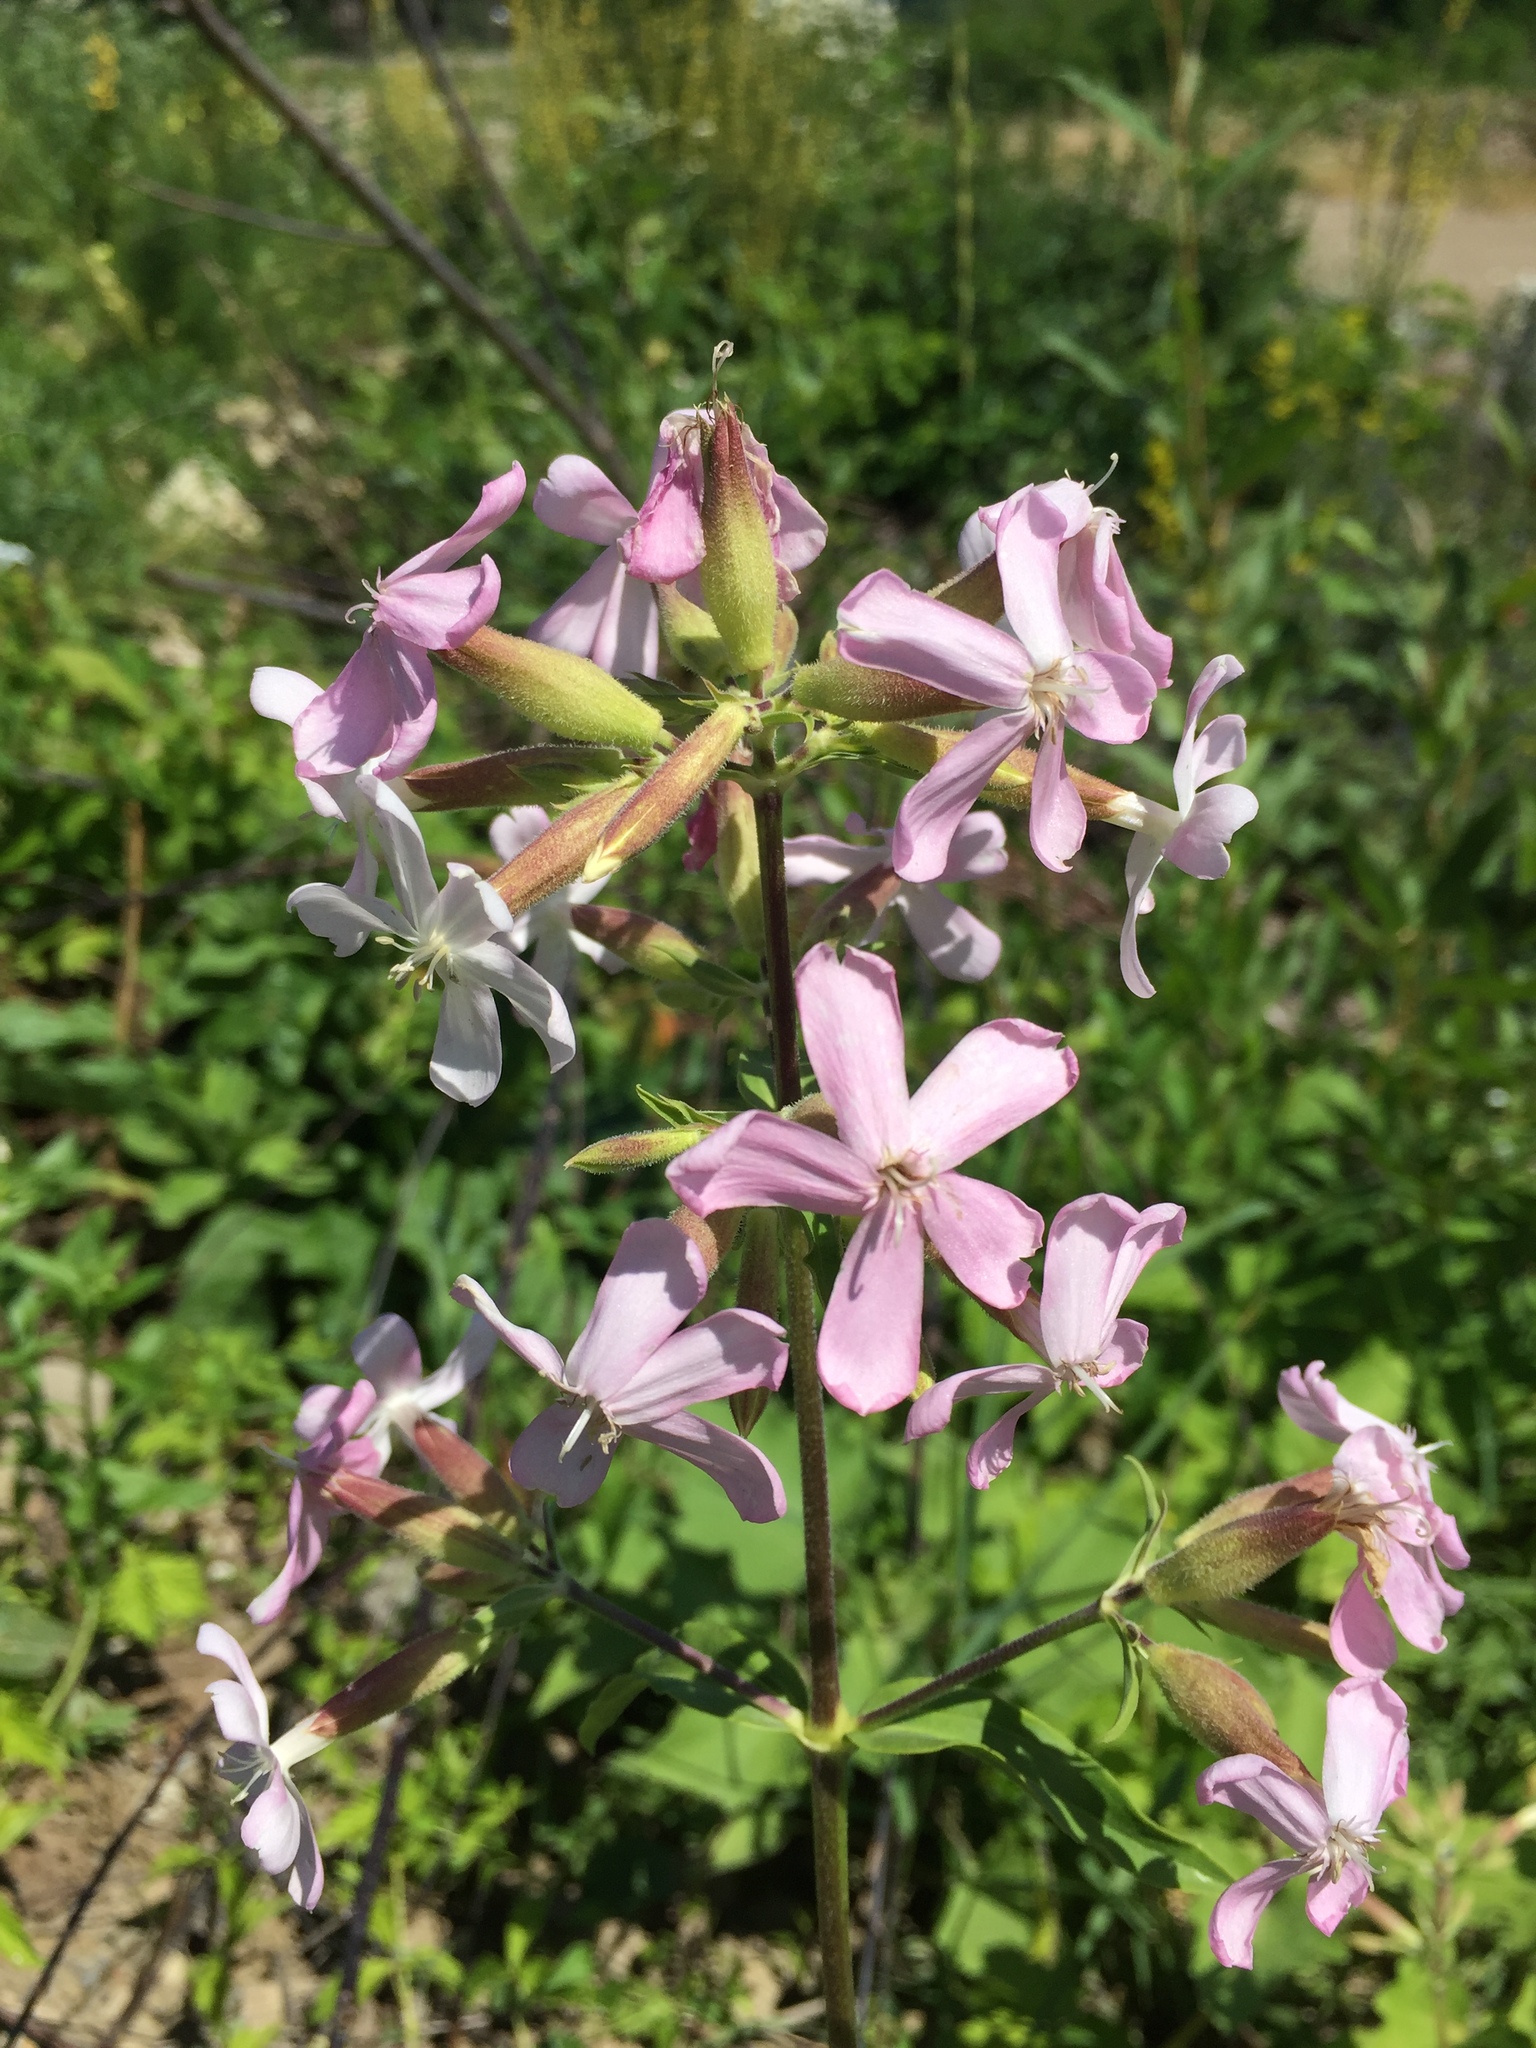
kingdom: Plantae
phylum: Tracheophyta
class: Magnoliopsida
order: Caryophyllales
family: Caryophyllaceae
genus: Saponaria
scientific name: Saponaria officinalis
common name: Soapwort
